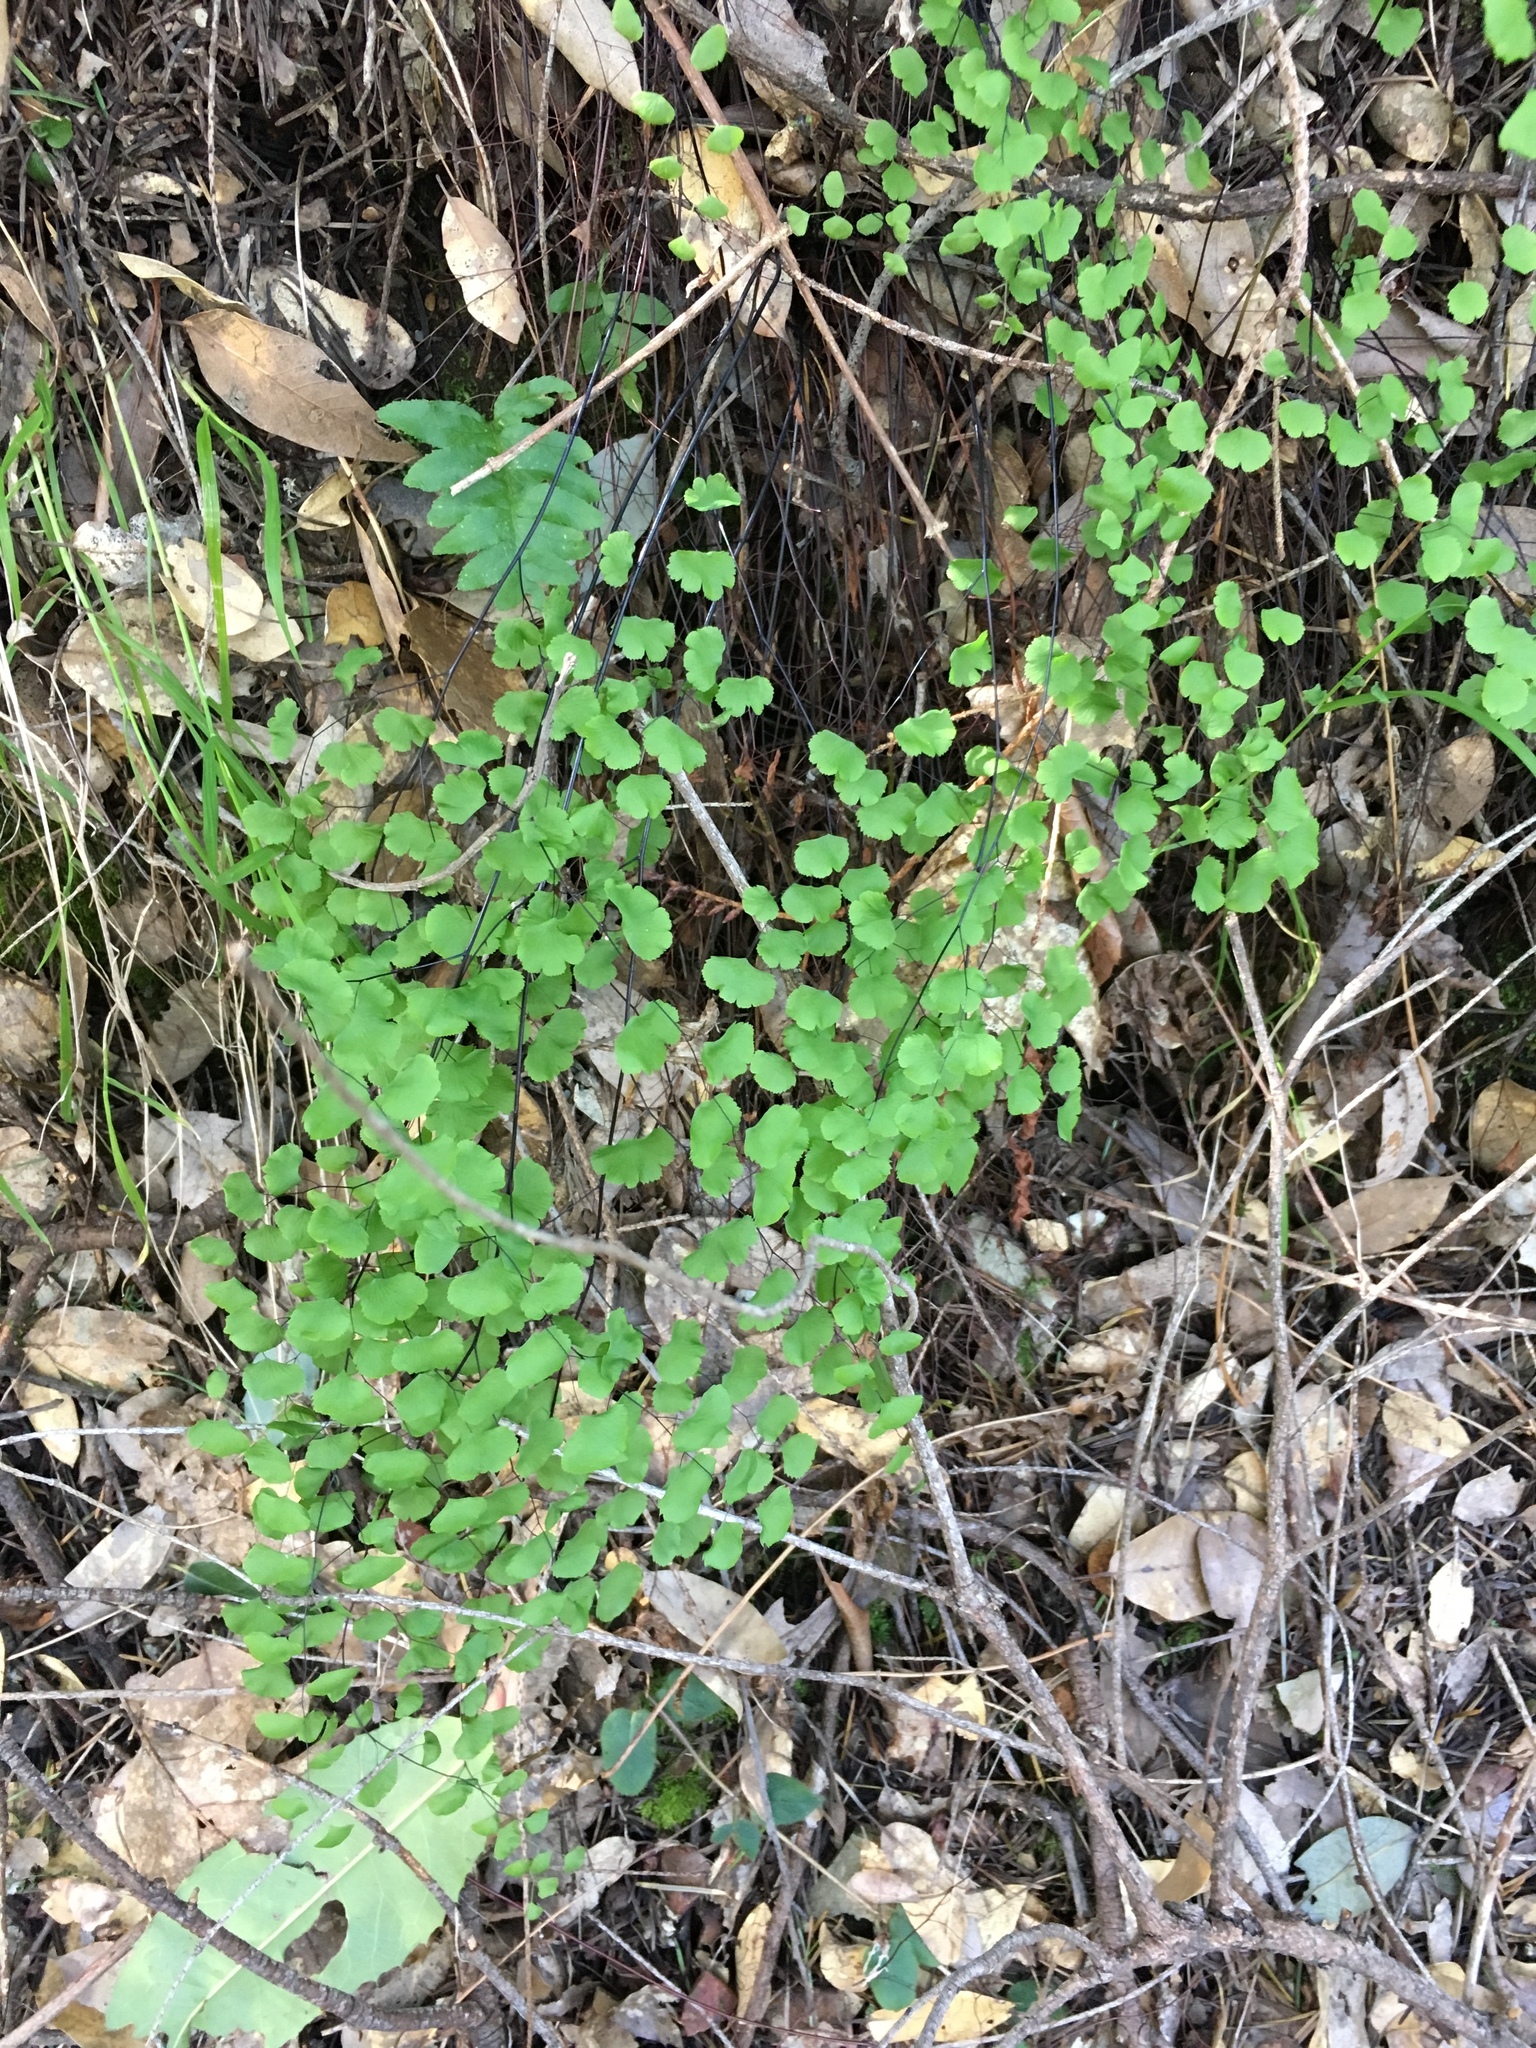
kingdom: Plantae
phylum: Tracheophyta
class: Polypodiopsida
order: Polypodiales
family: Pteridaceae
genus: Adiantum
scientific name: Adiantum jordanii
